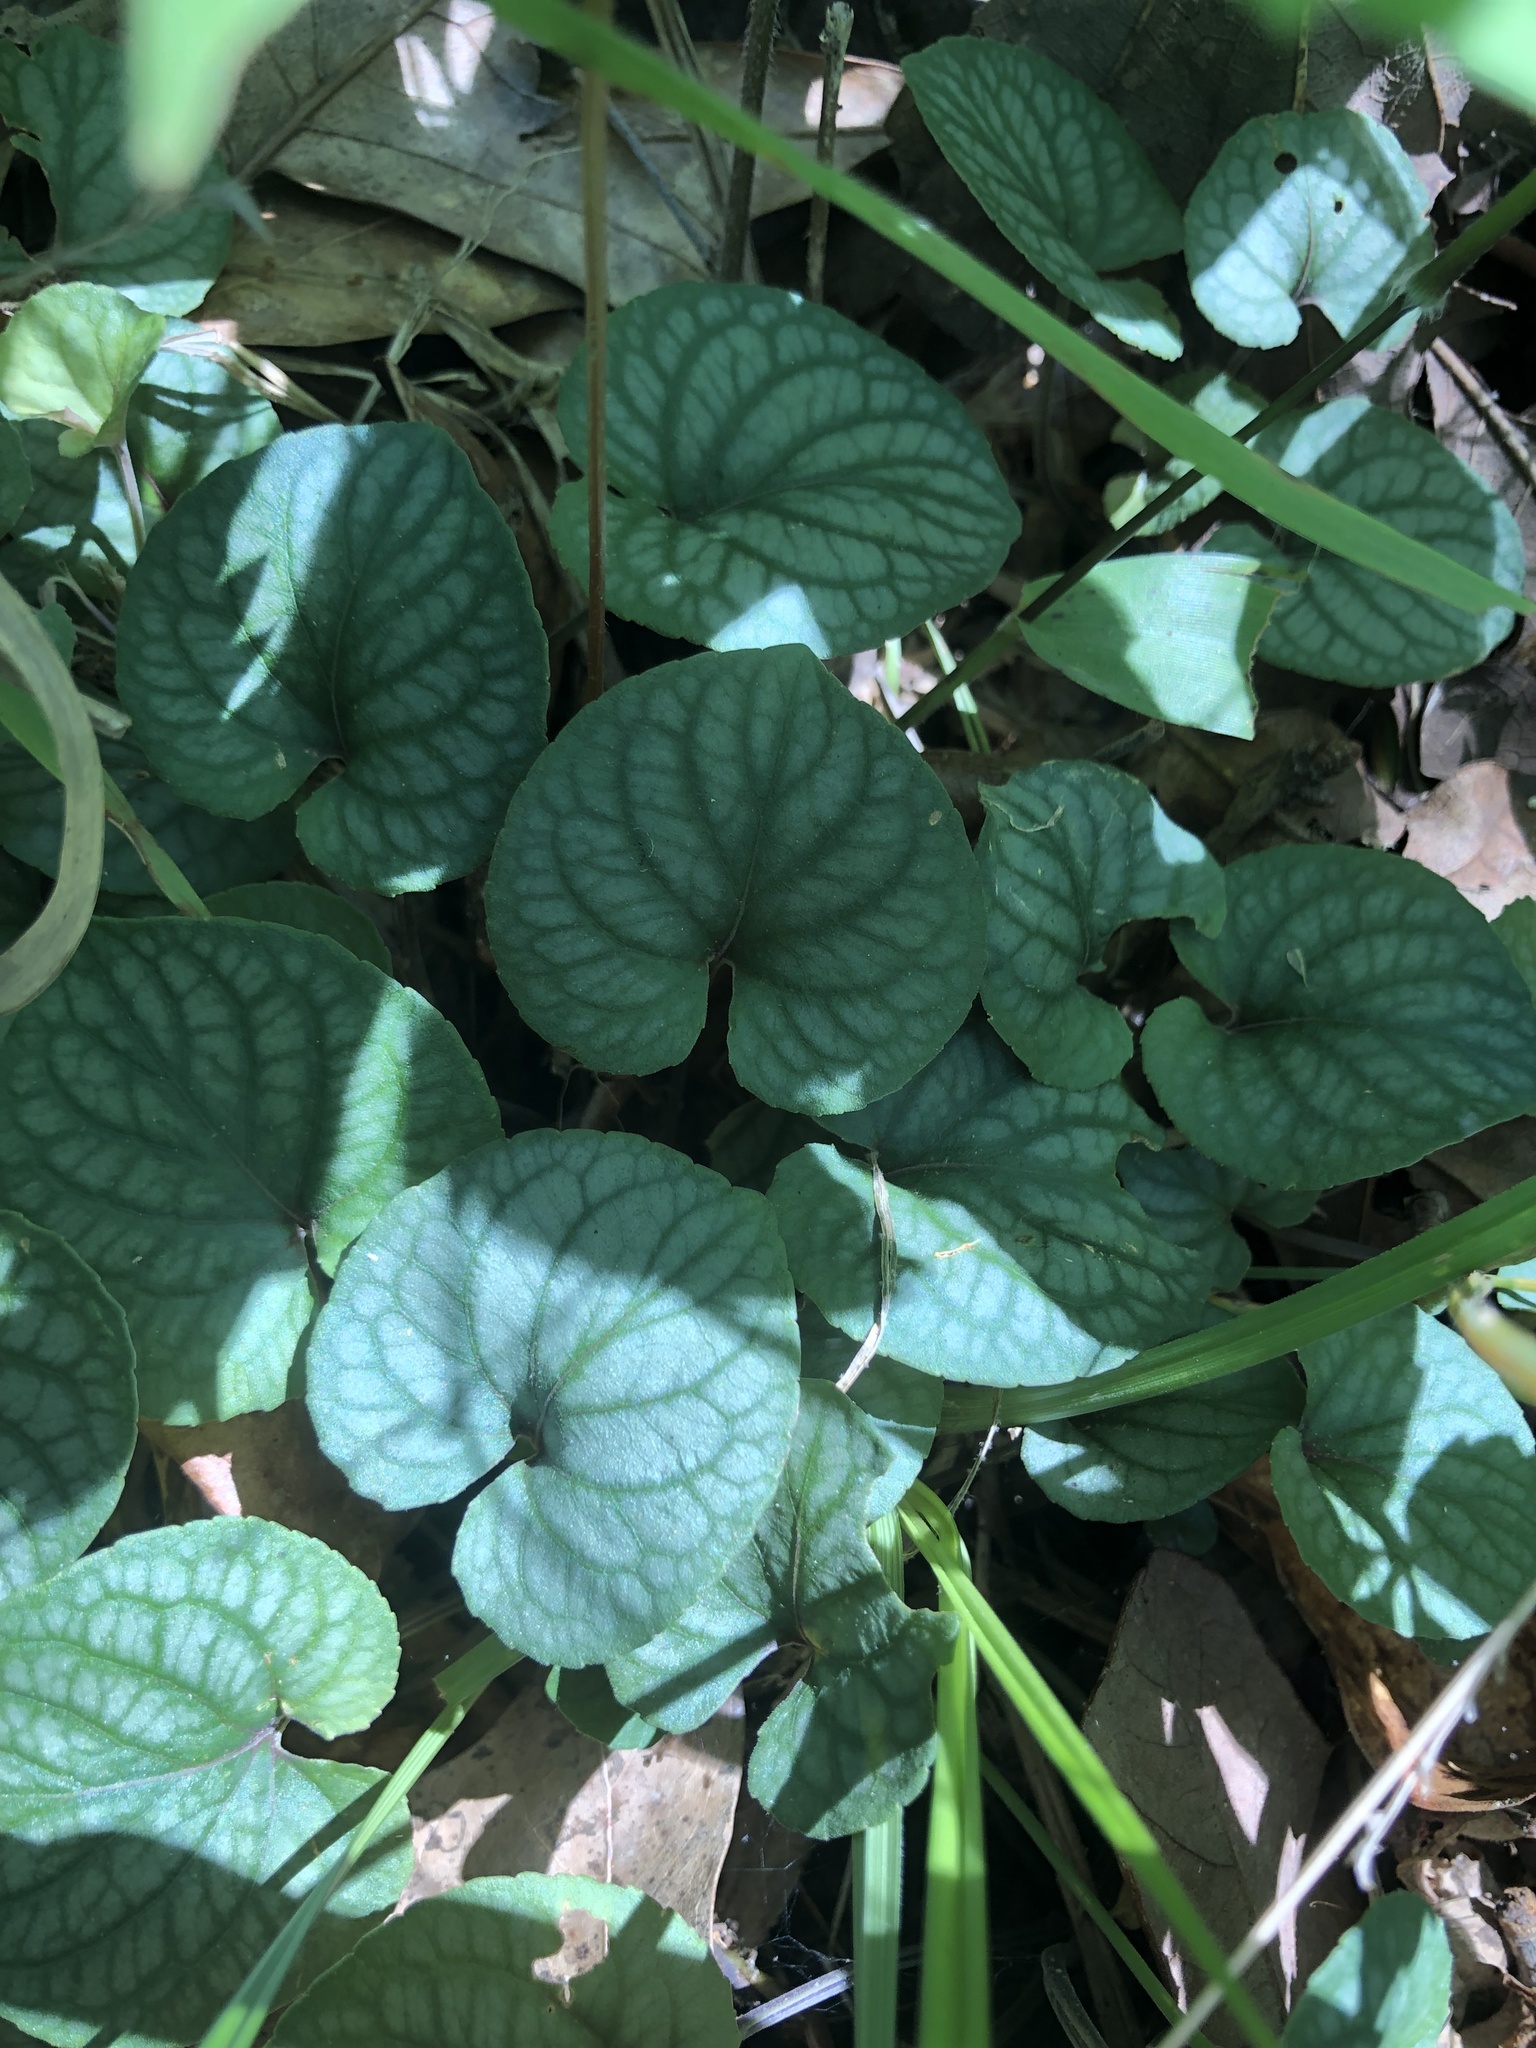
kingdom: Plantae
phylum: Tracheophyta
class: Magnoliopsida
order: Malpighiales
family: Violaceae
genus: Viola
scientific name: Viola walteri
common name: Prostrate southern violet
